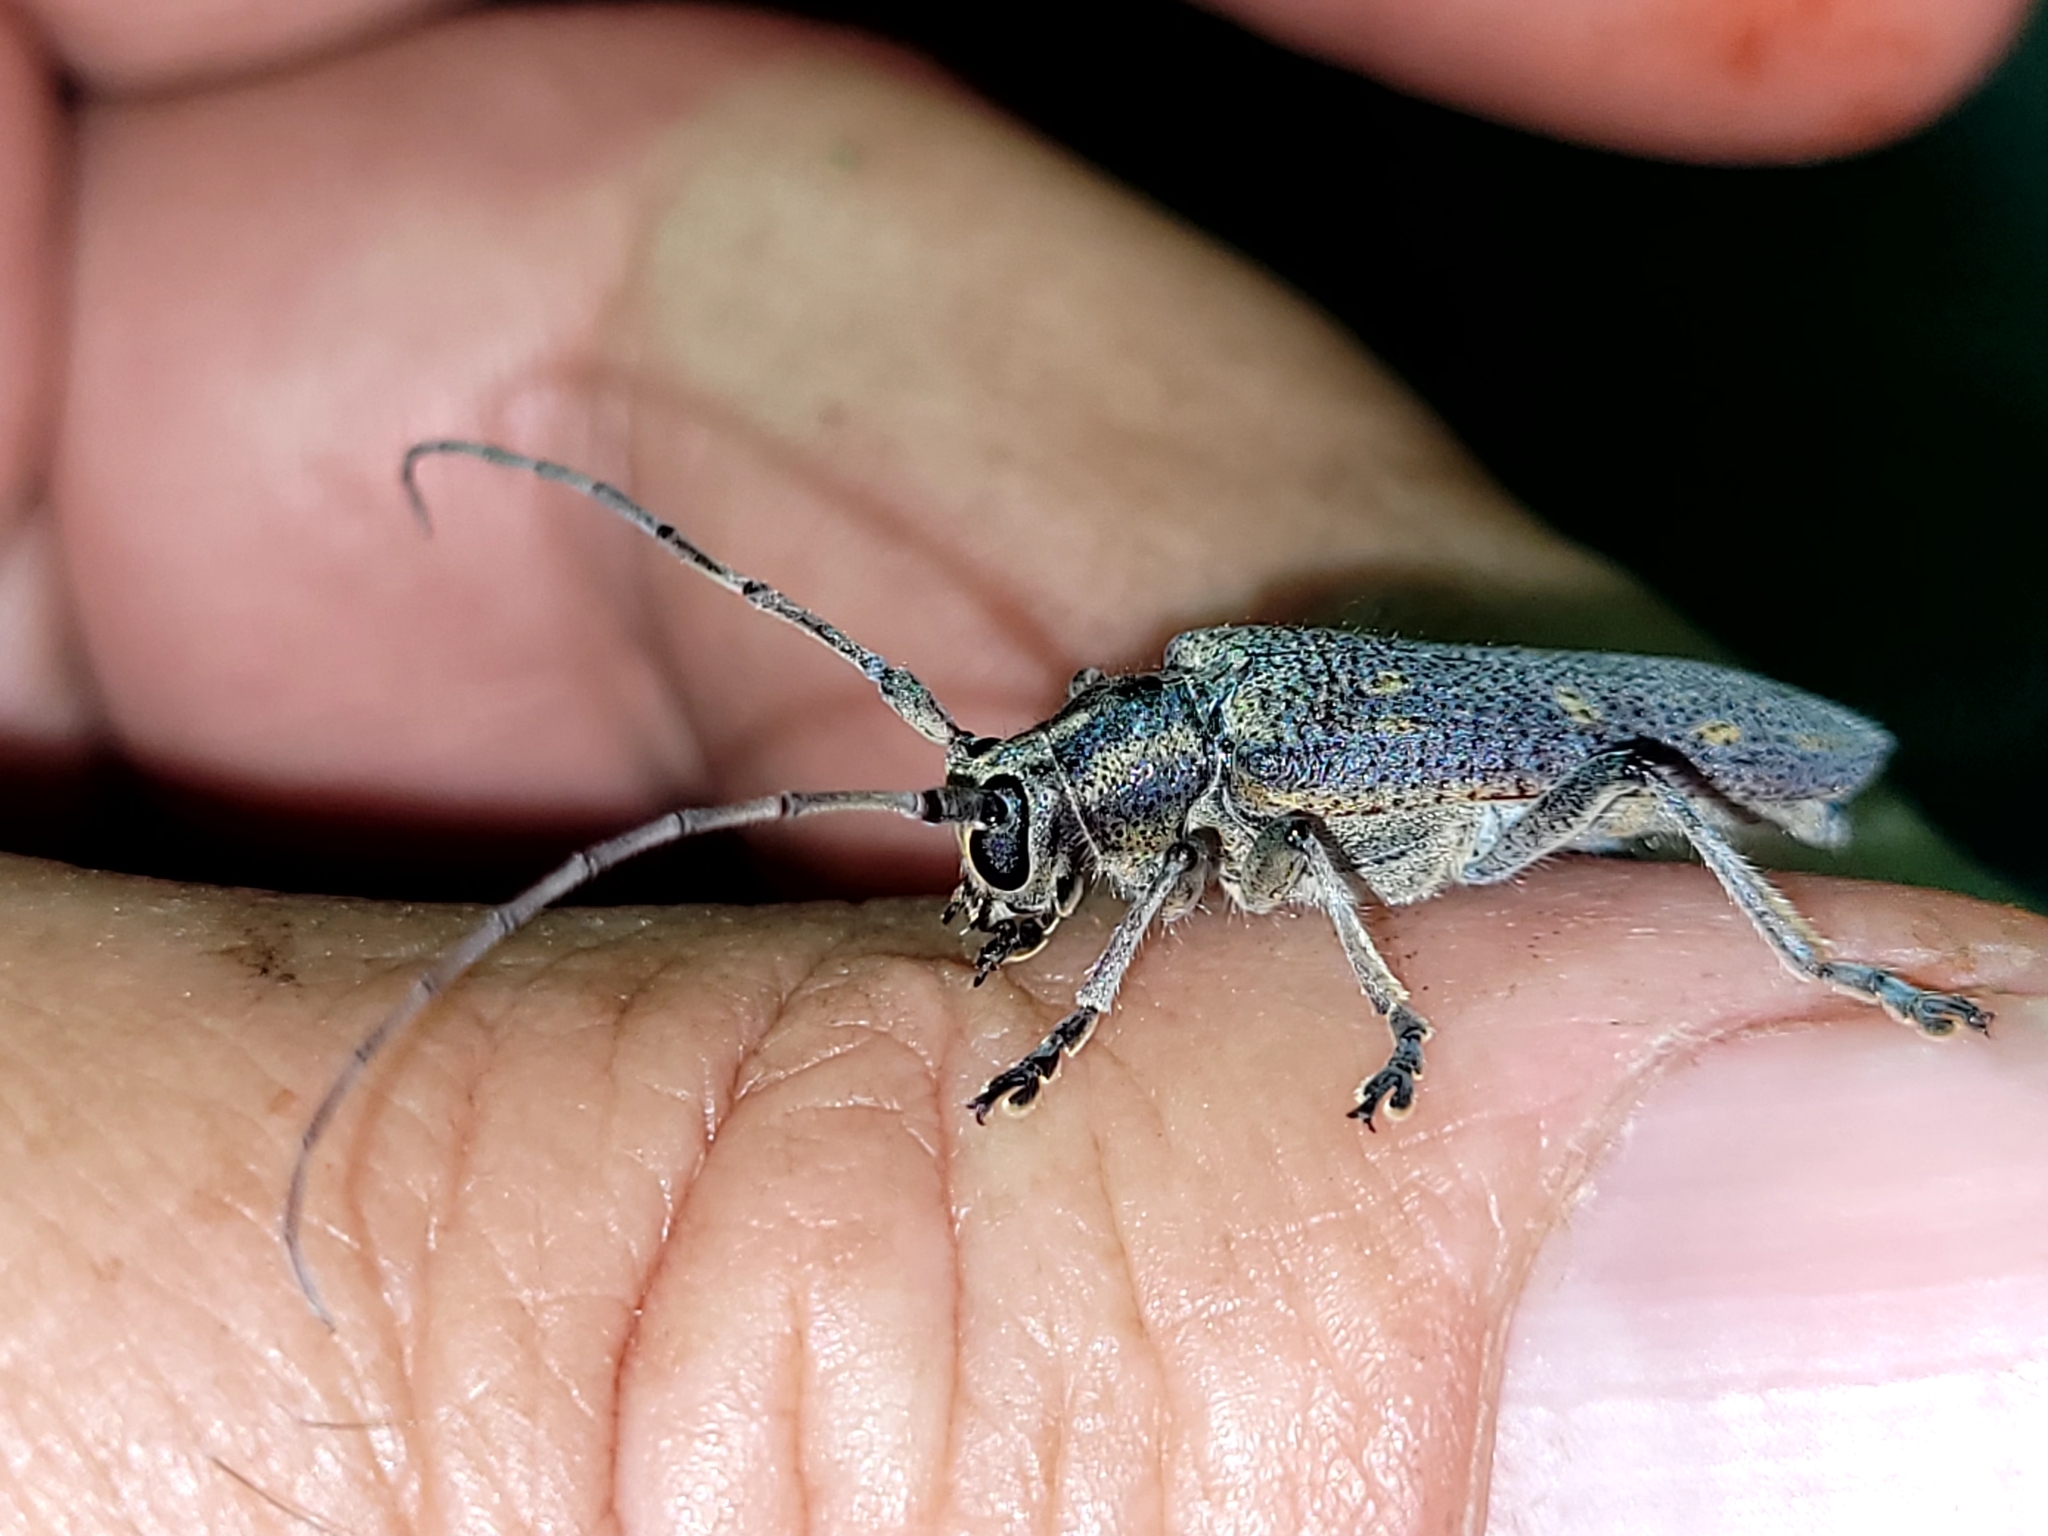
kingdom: Animalia
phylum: Arthropoda
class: Insecta
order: Coleoptera
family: Cerambycidae
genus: Saperda
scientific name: Saperda calcarata
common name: Poplar borer
